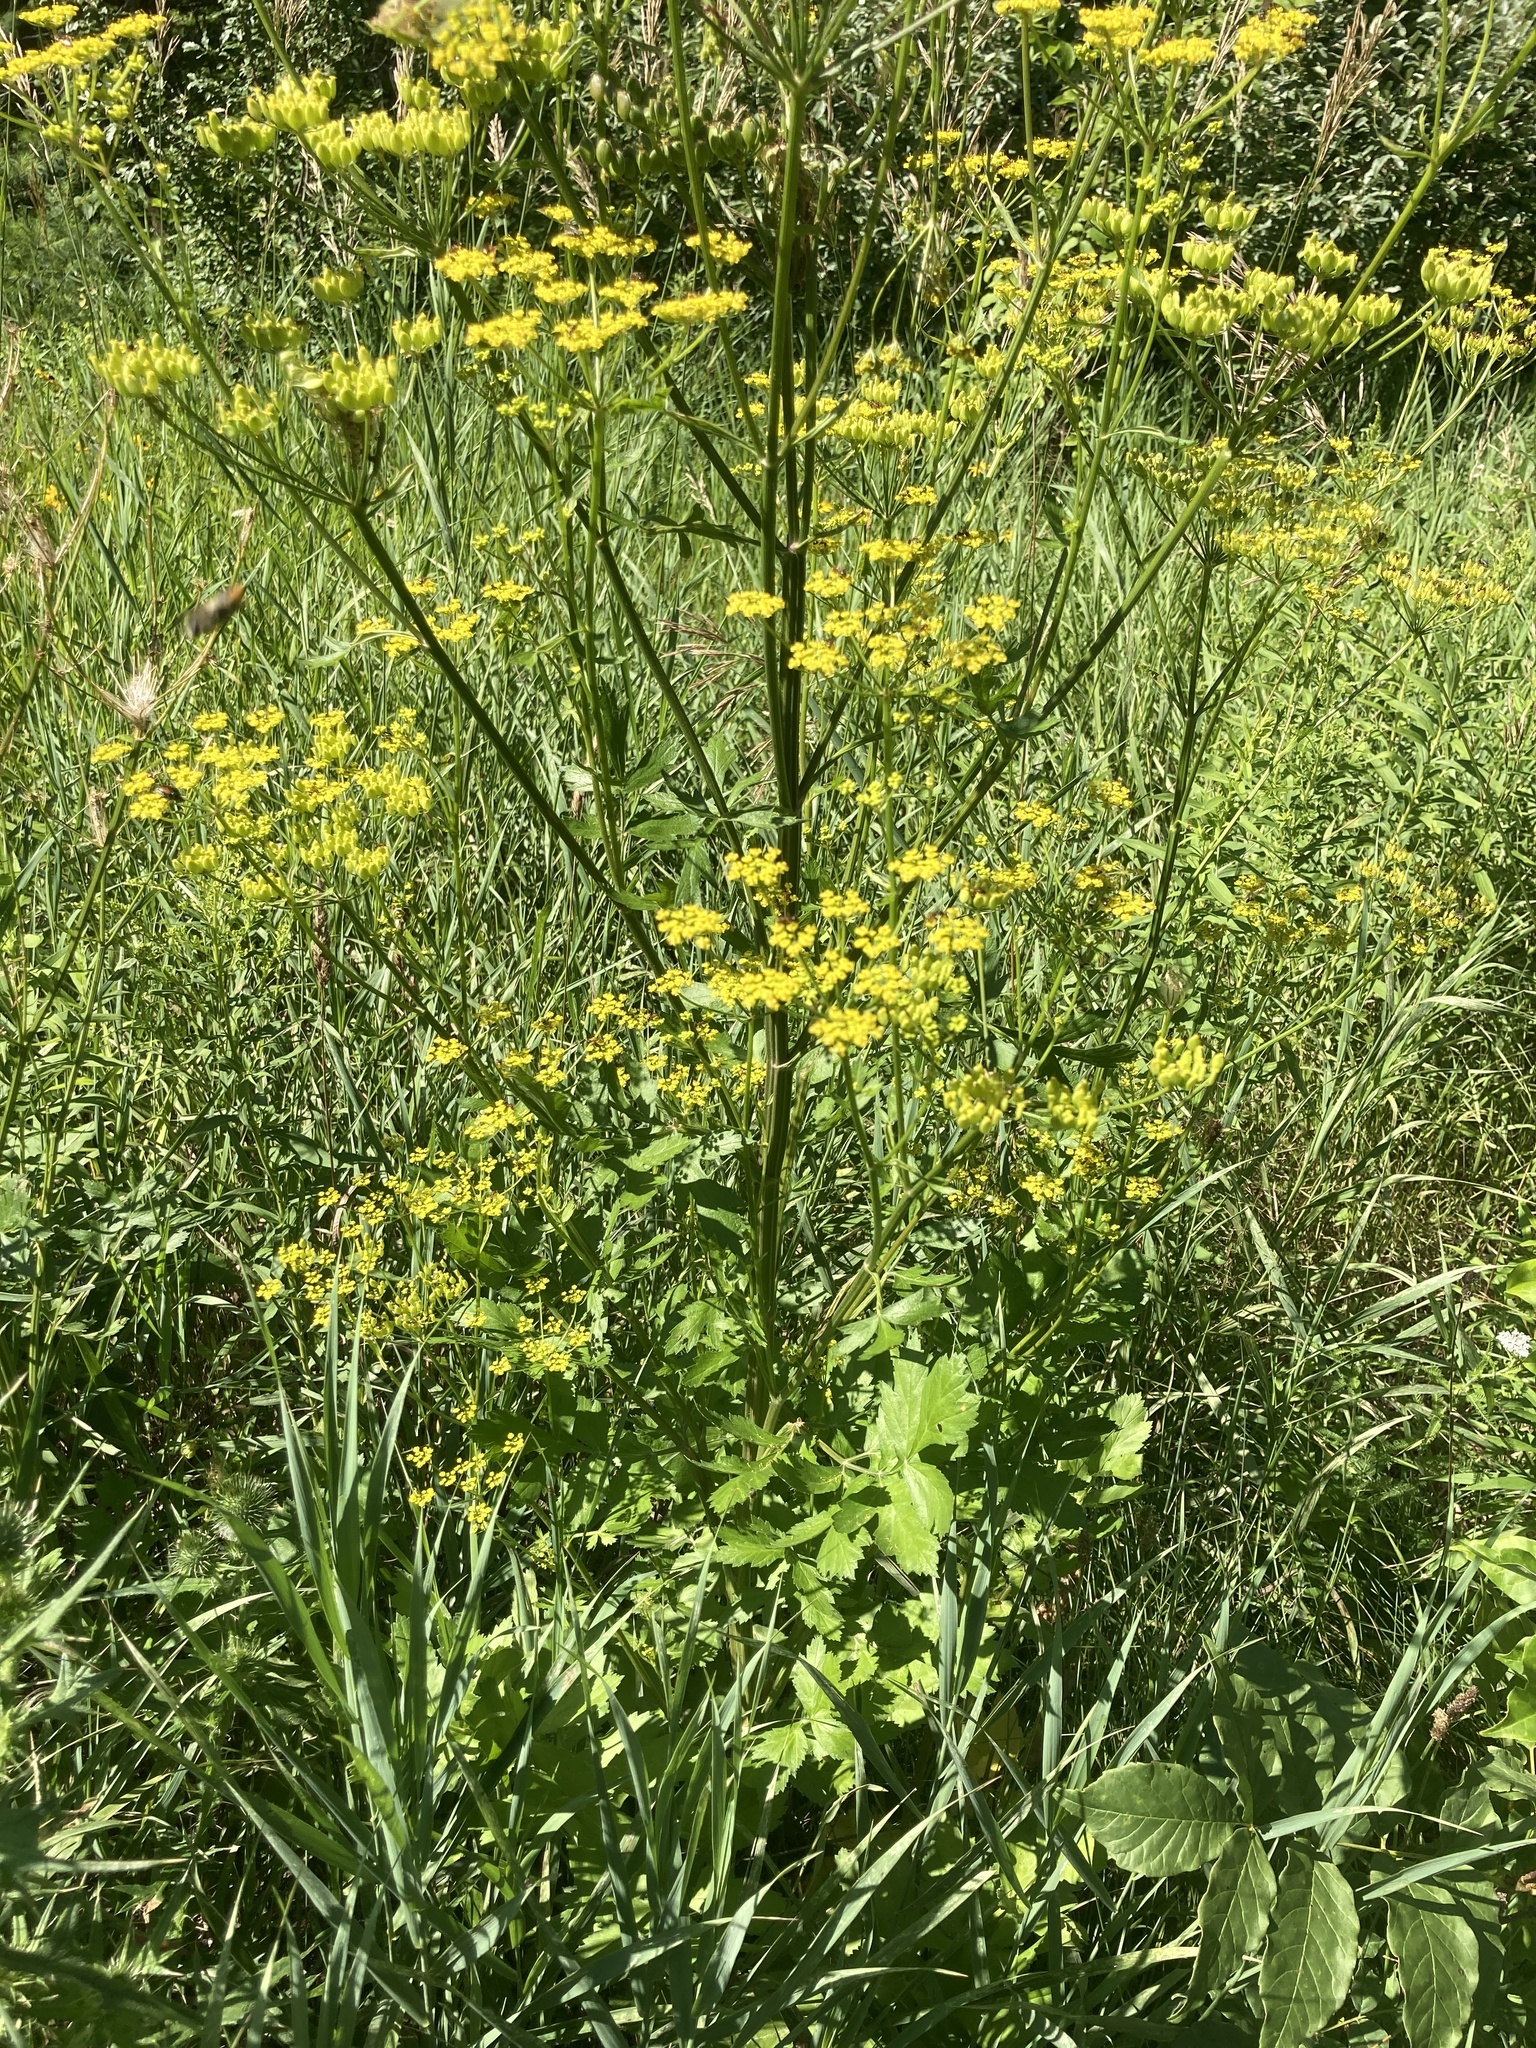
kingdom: Plantae
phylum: Tracheophyta
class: Magnoliopsida
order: Apiales
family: Apiaceae
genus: Pastinaca
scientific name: Pastinaca sativa
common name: Wild parsnip
